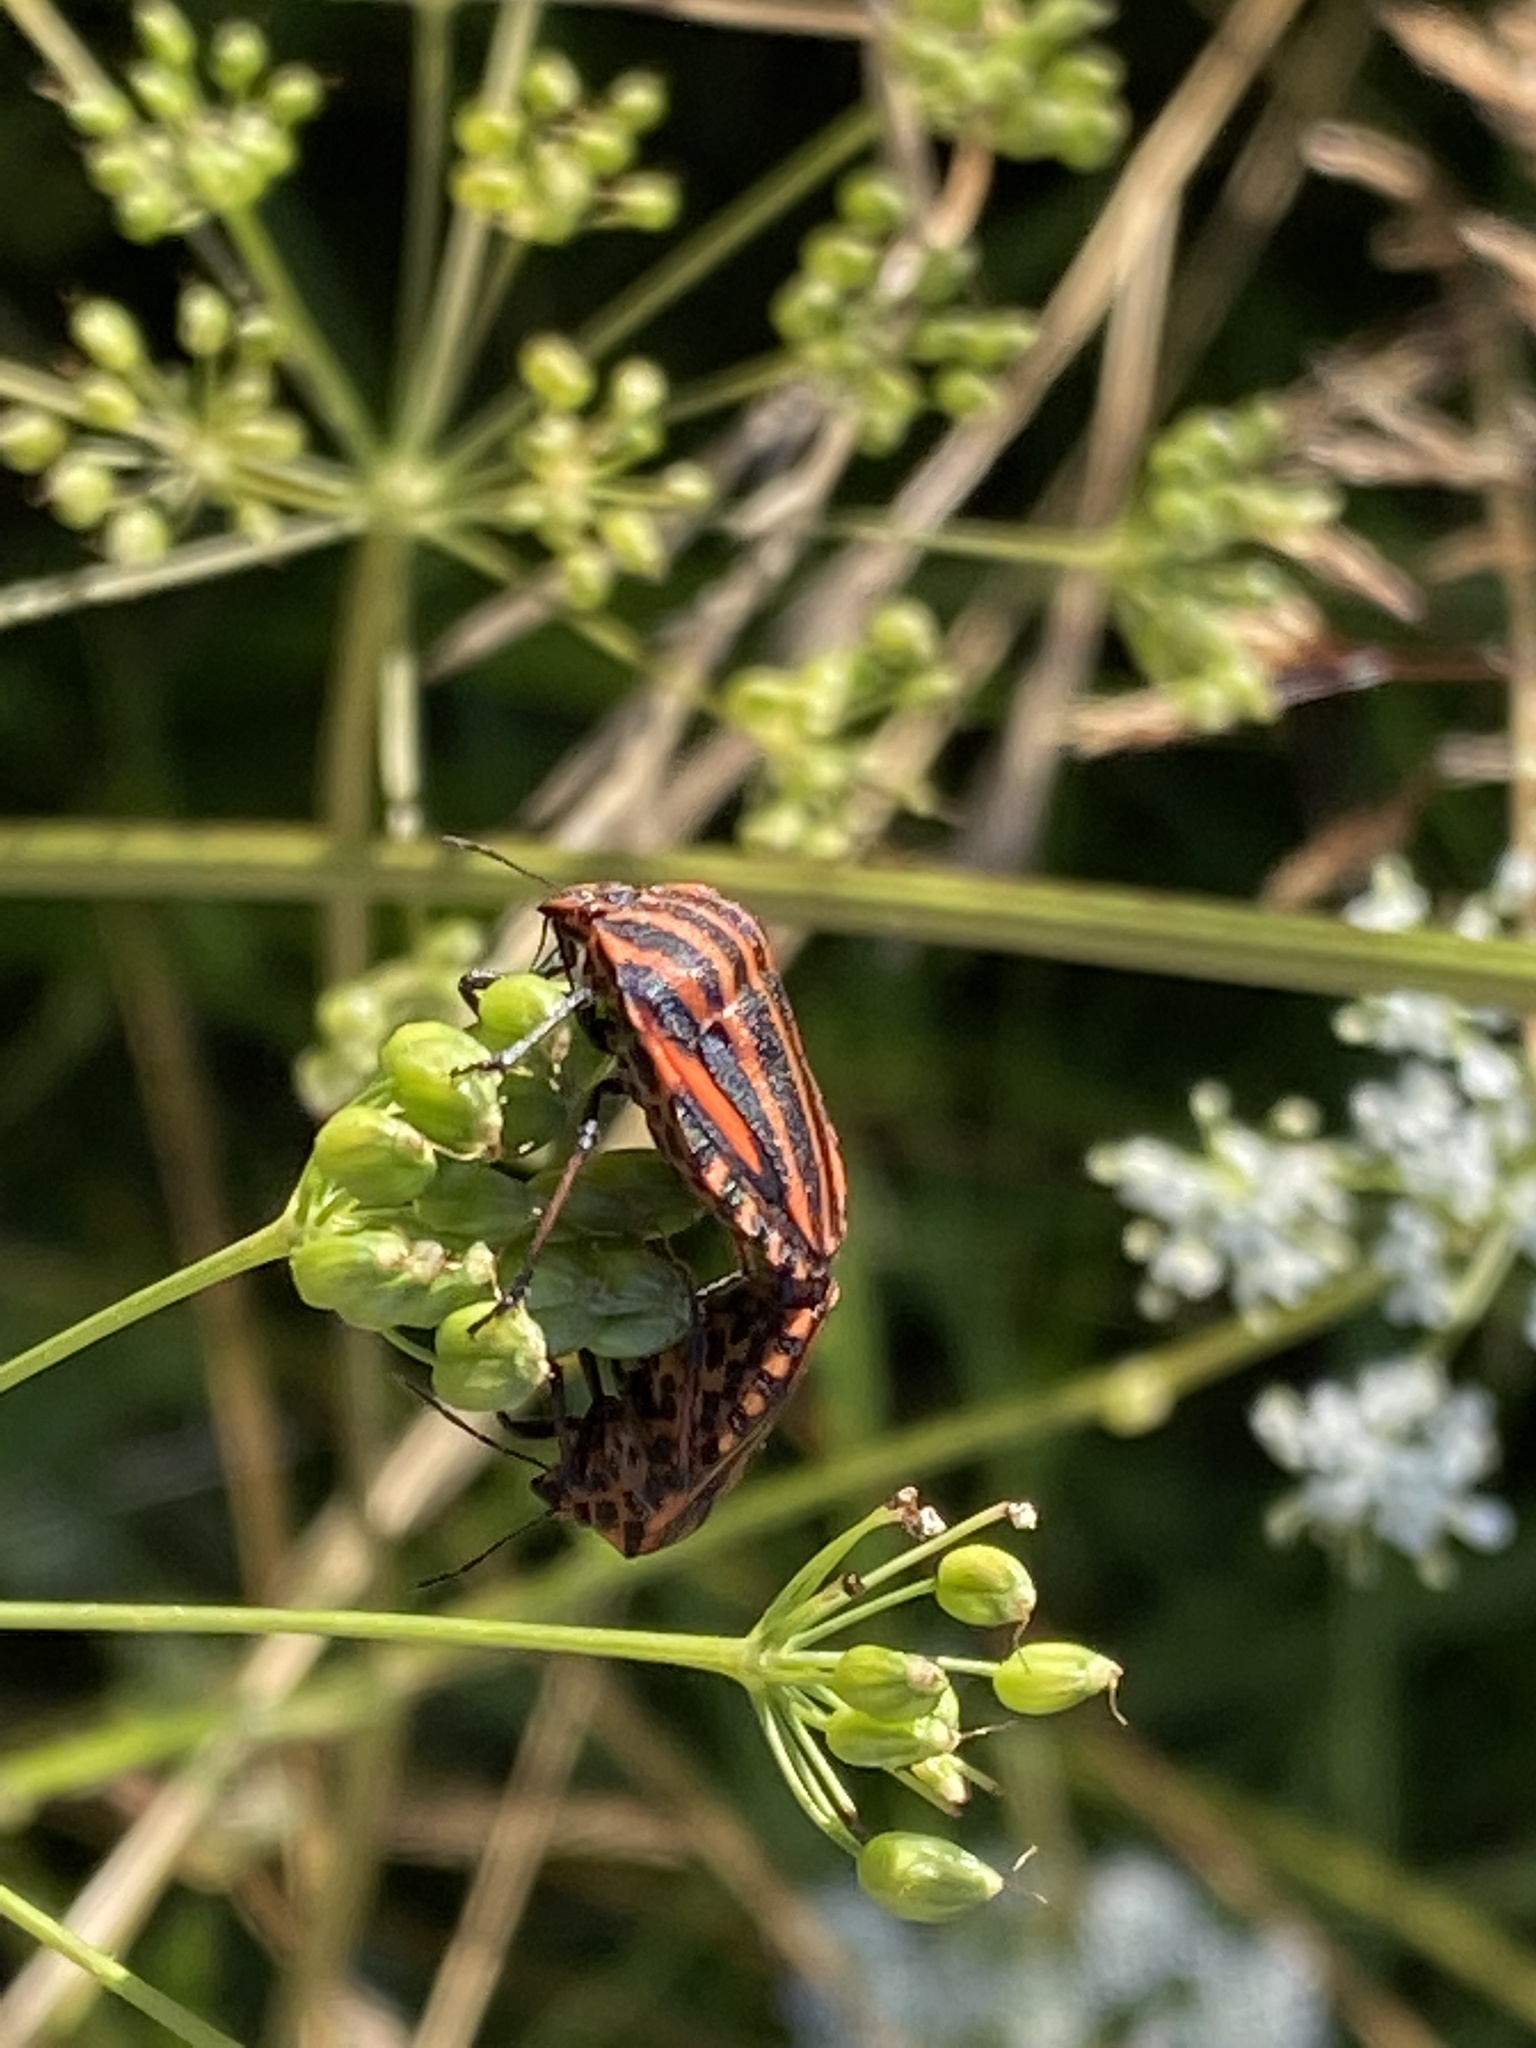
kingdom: Animalia
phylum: Arthropoda
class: Insecta
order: Hemiptera
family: Pentatomidae
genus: Graphosoma
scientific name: Graphosoma italicum
